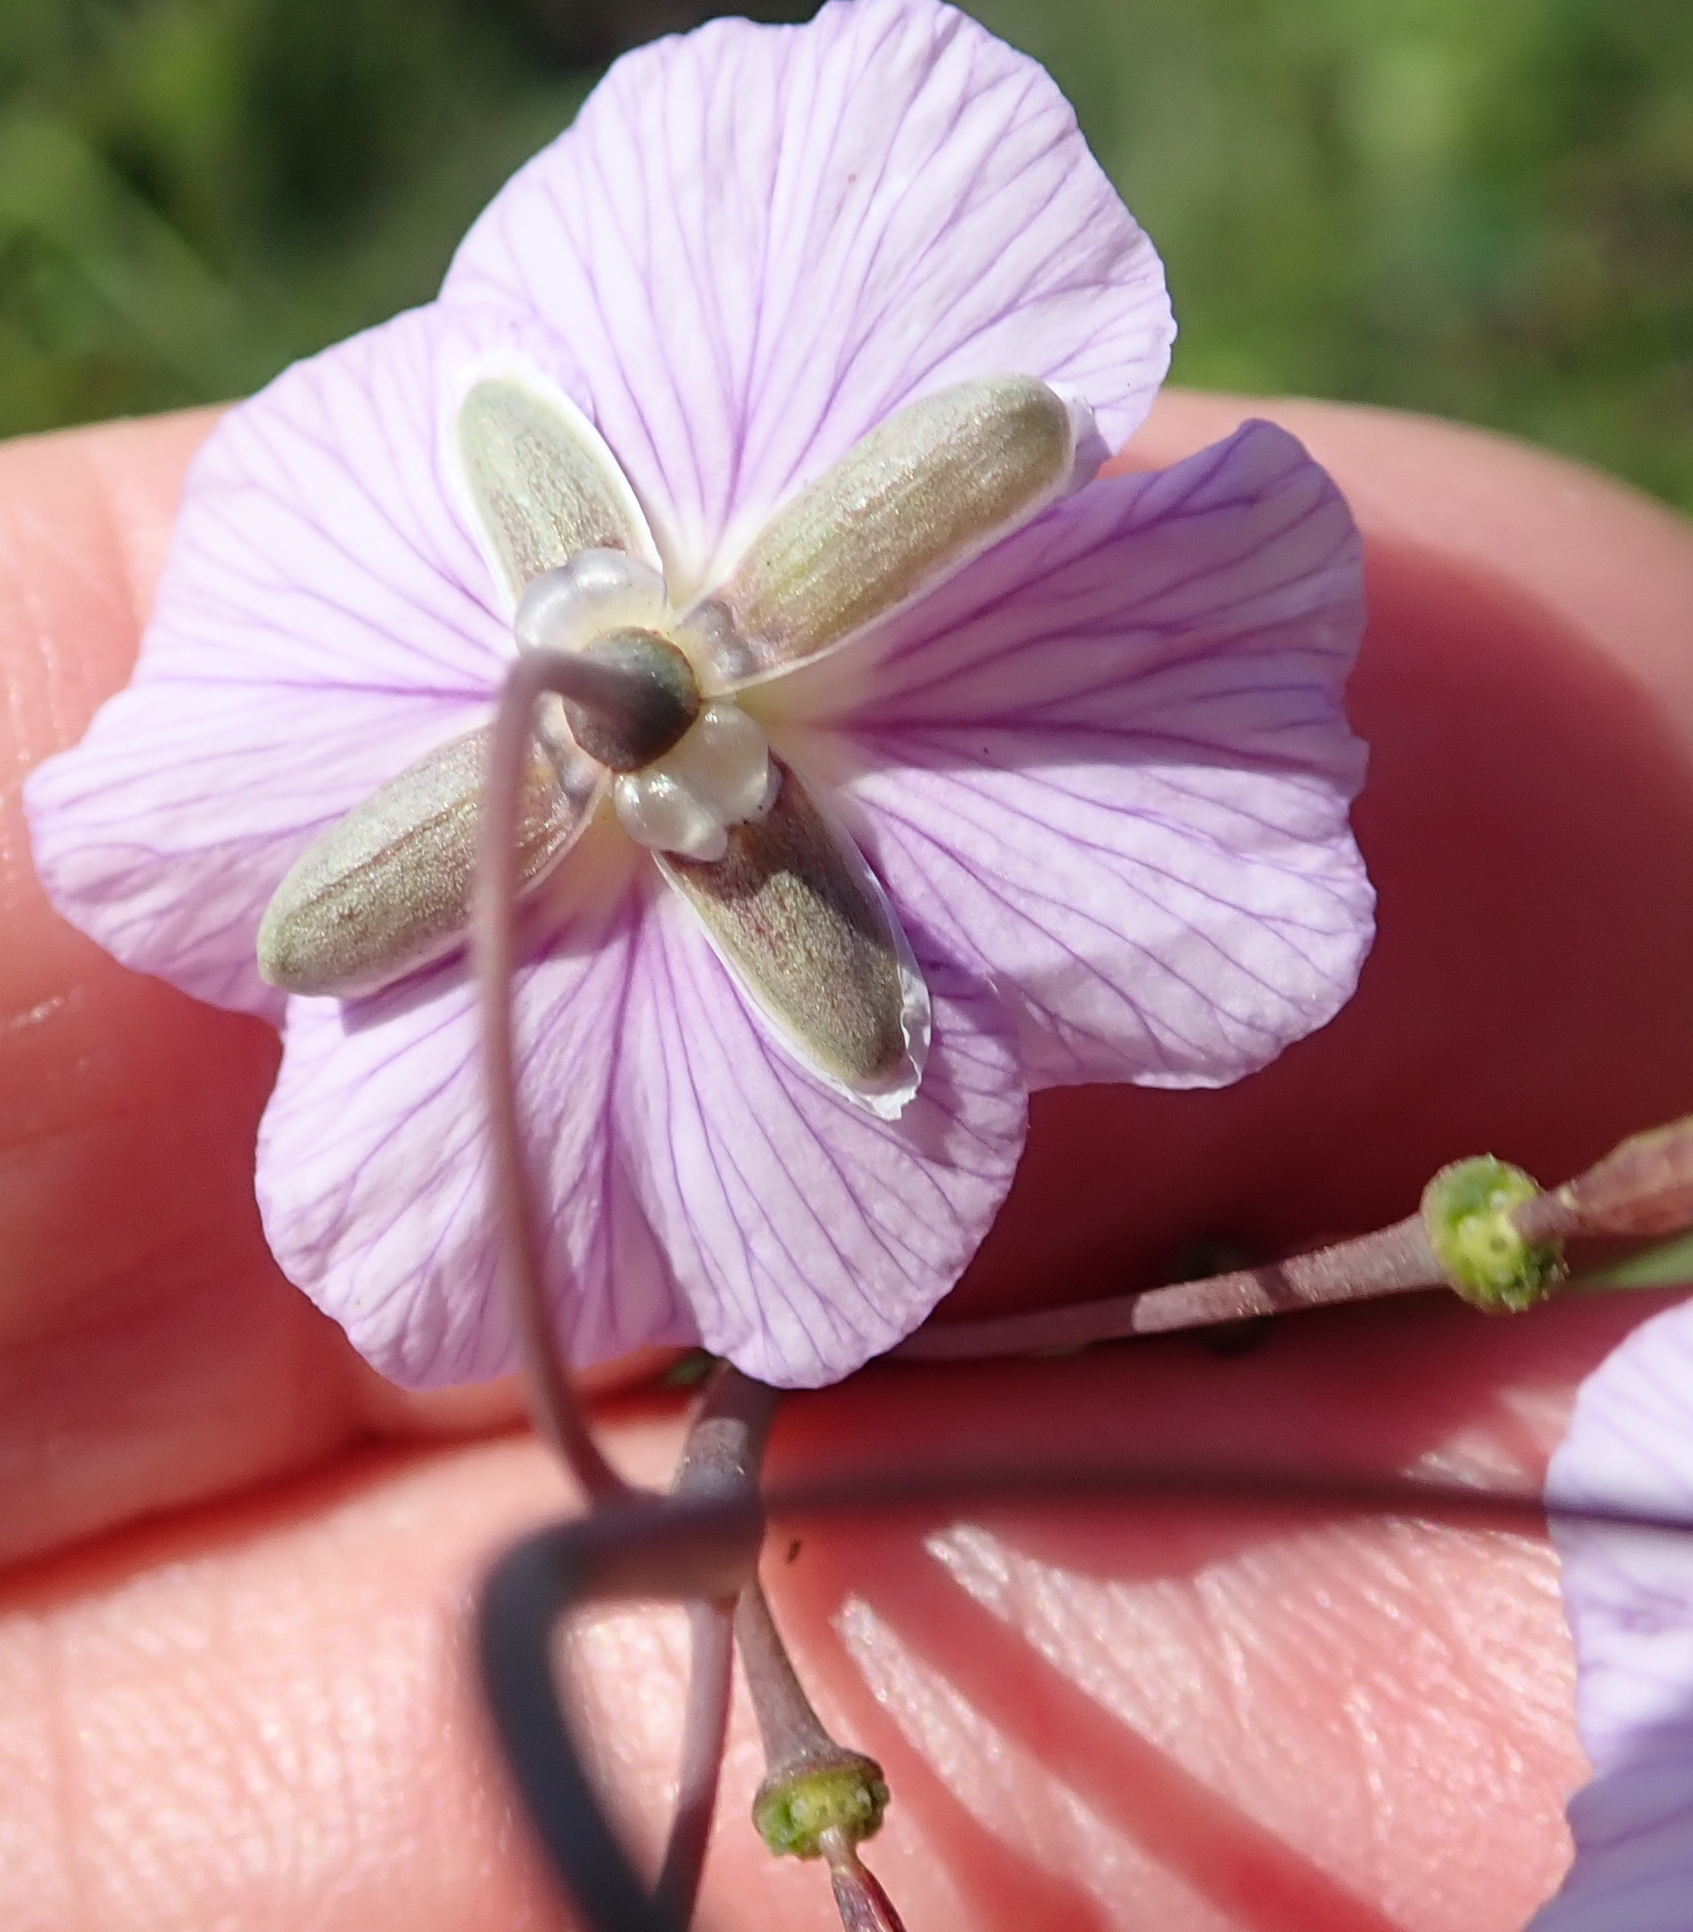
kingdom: Plantae
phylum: Tracheophyta
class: Magnoliopsida
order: Brassicales
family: Brassicaceae
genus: Heliophila
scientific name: Heliophila rigidiuscula
